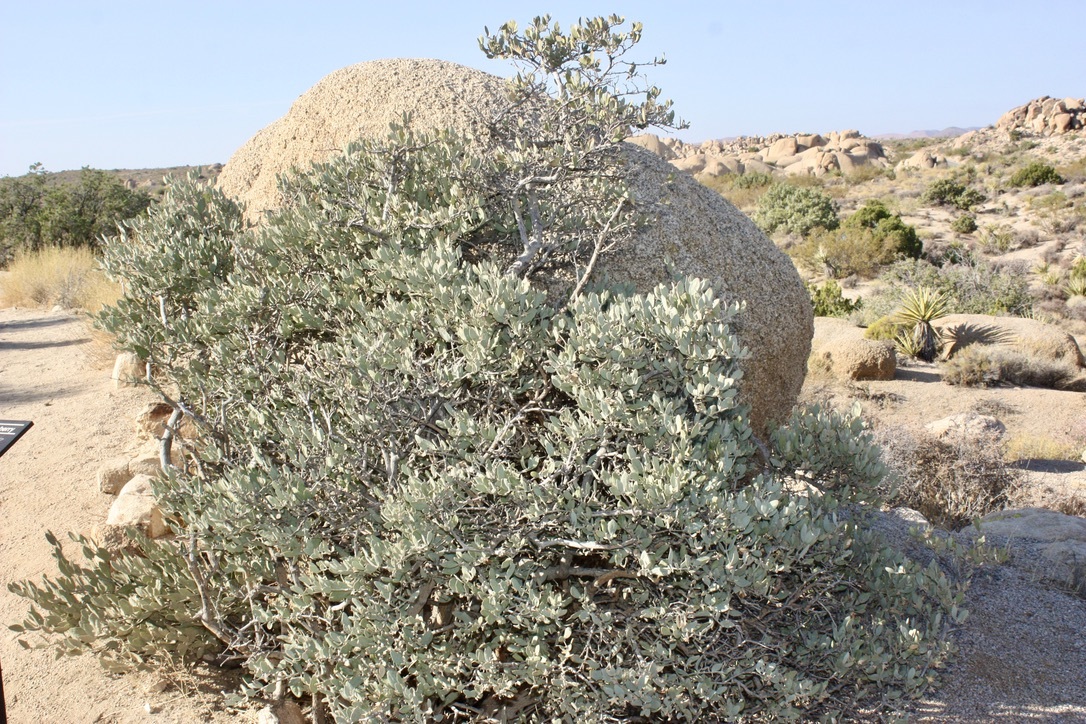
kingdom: Plantae
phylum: Tracheophyta
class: Magnoliopsida
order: Caryophyllales
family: Simmondsiaceae
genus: Simmondsia
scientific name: Simmondsia chinensis
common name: Jojoba
